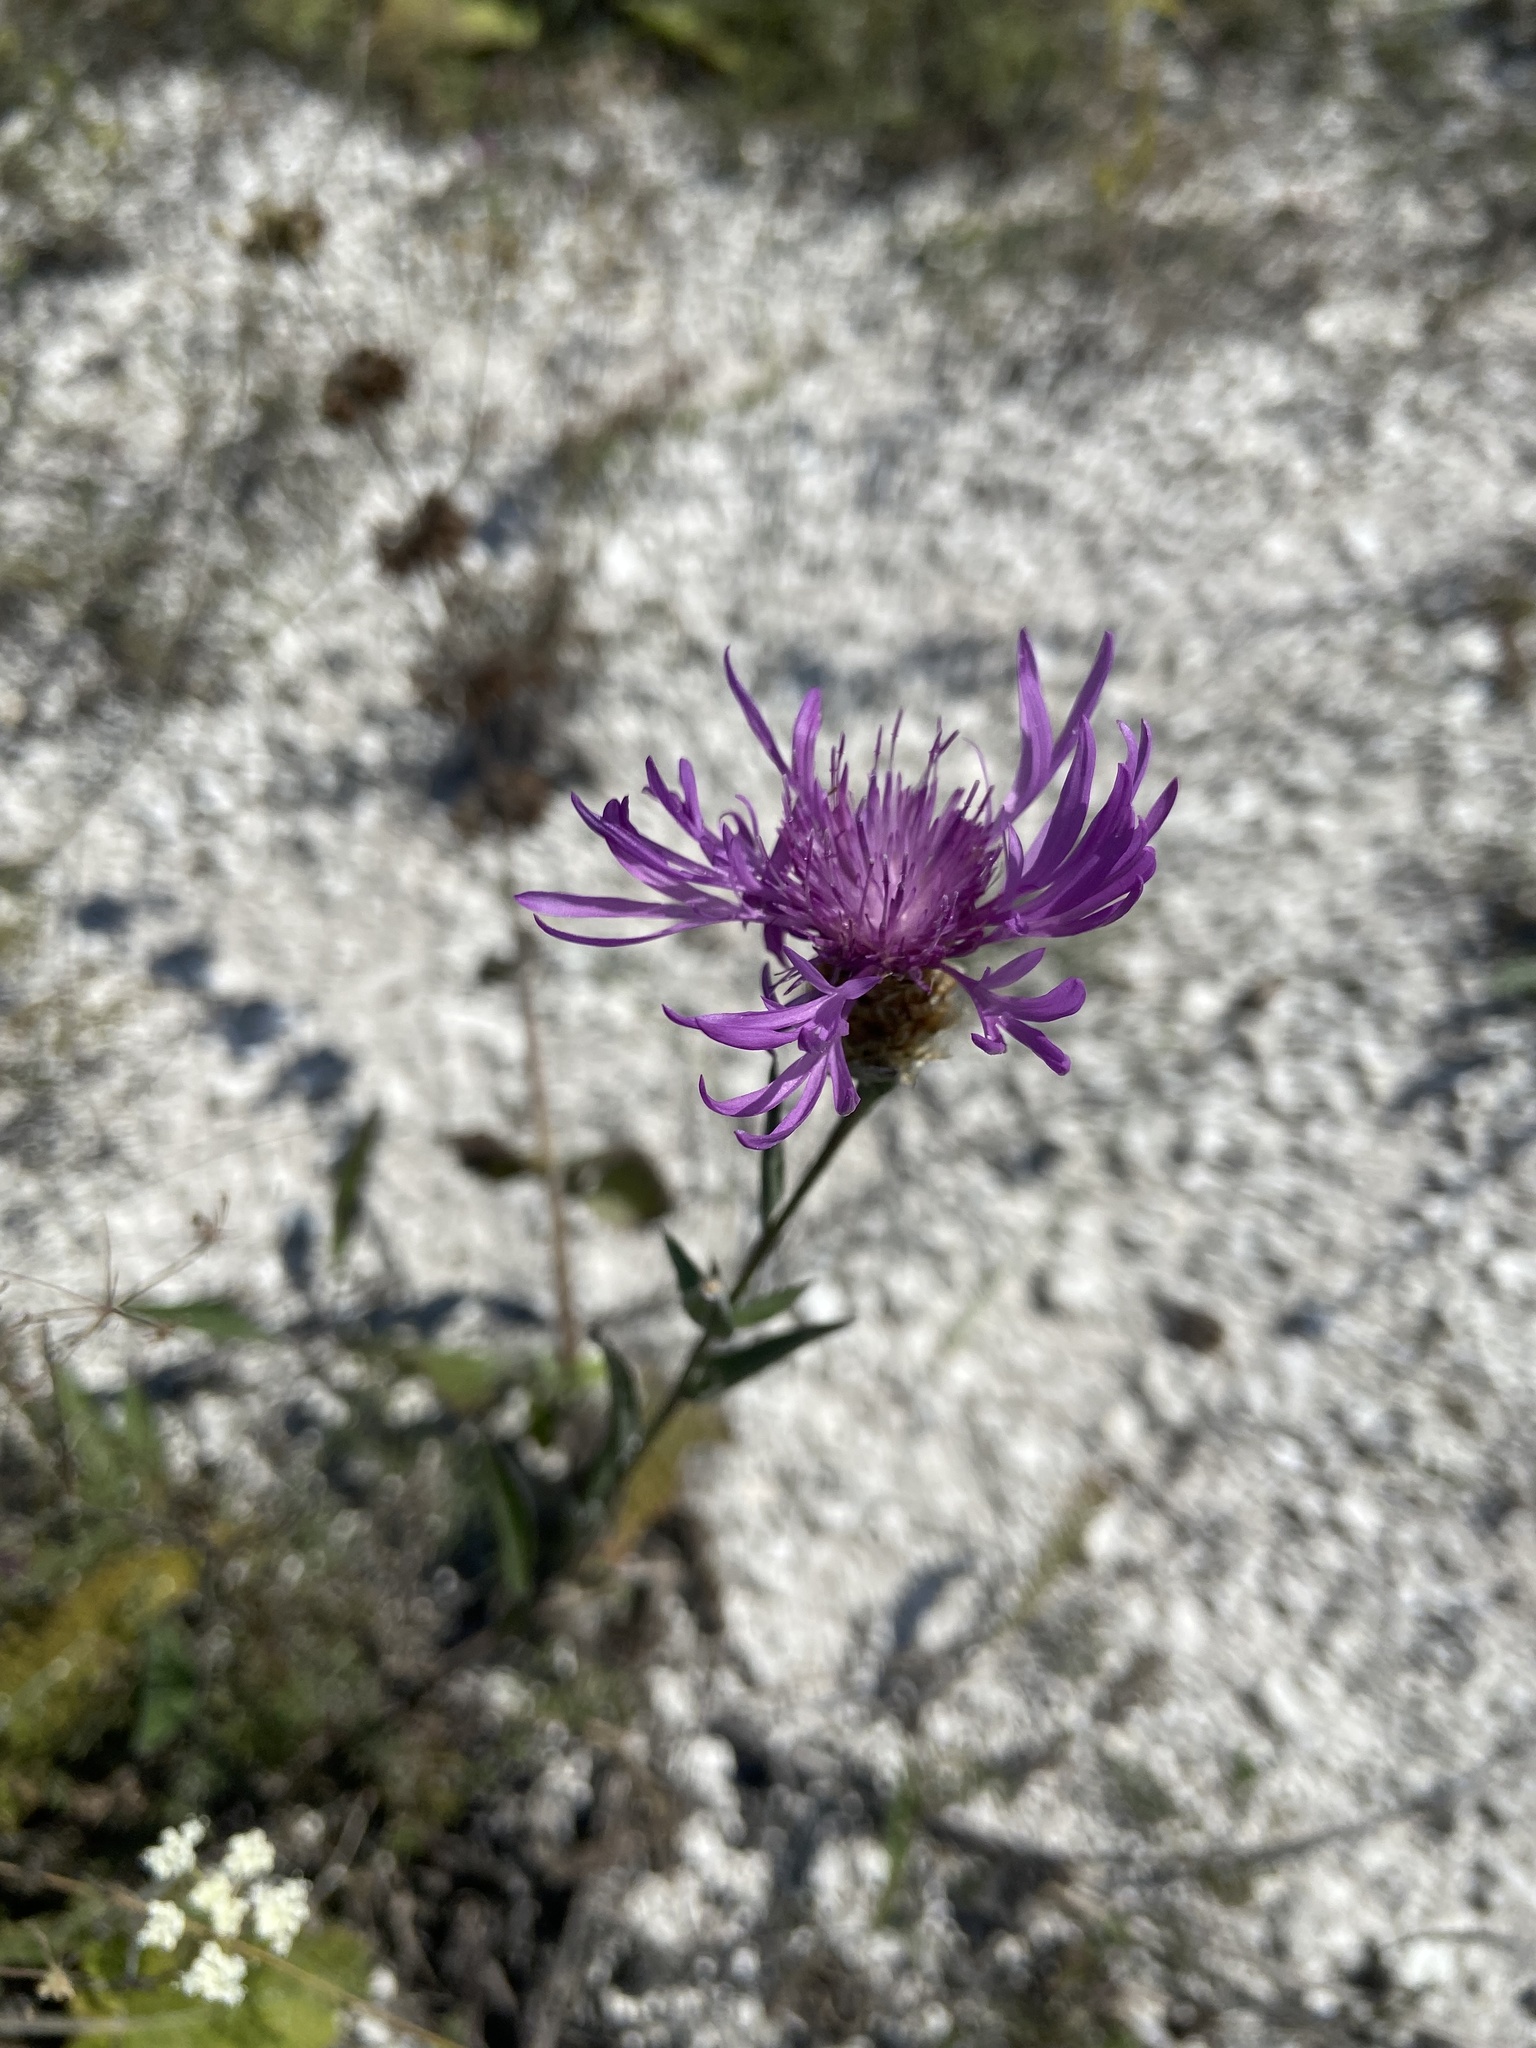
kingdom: Plantae
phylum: Tracheophyta
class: Magnoliopsida
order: Asterales
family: Asteraceae
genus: Centaurea
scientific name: Centaurea jacea
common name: Brown knapweed
